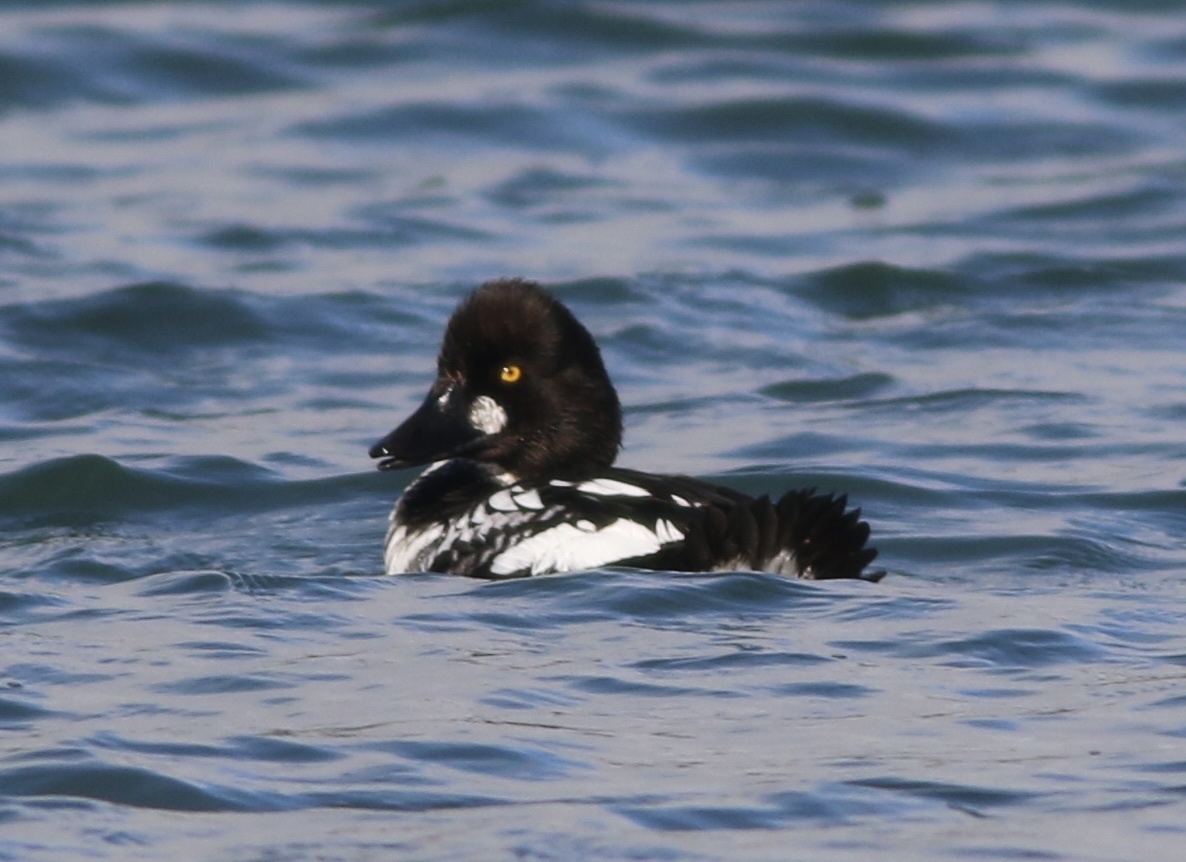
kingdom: Animalia
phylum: Chordata
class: Aves
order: Anseriformes
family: Anatidae
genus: Bucephala
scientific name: Bucephala clangula
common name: Common goldeneye
